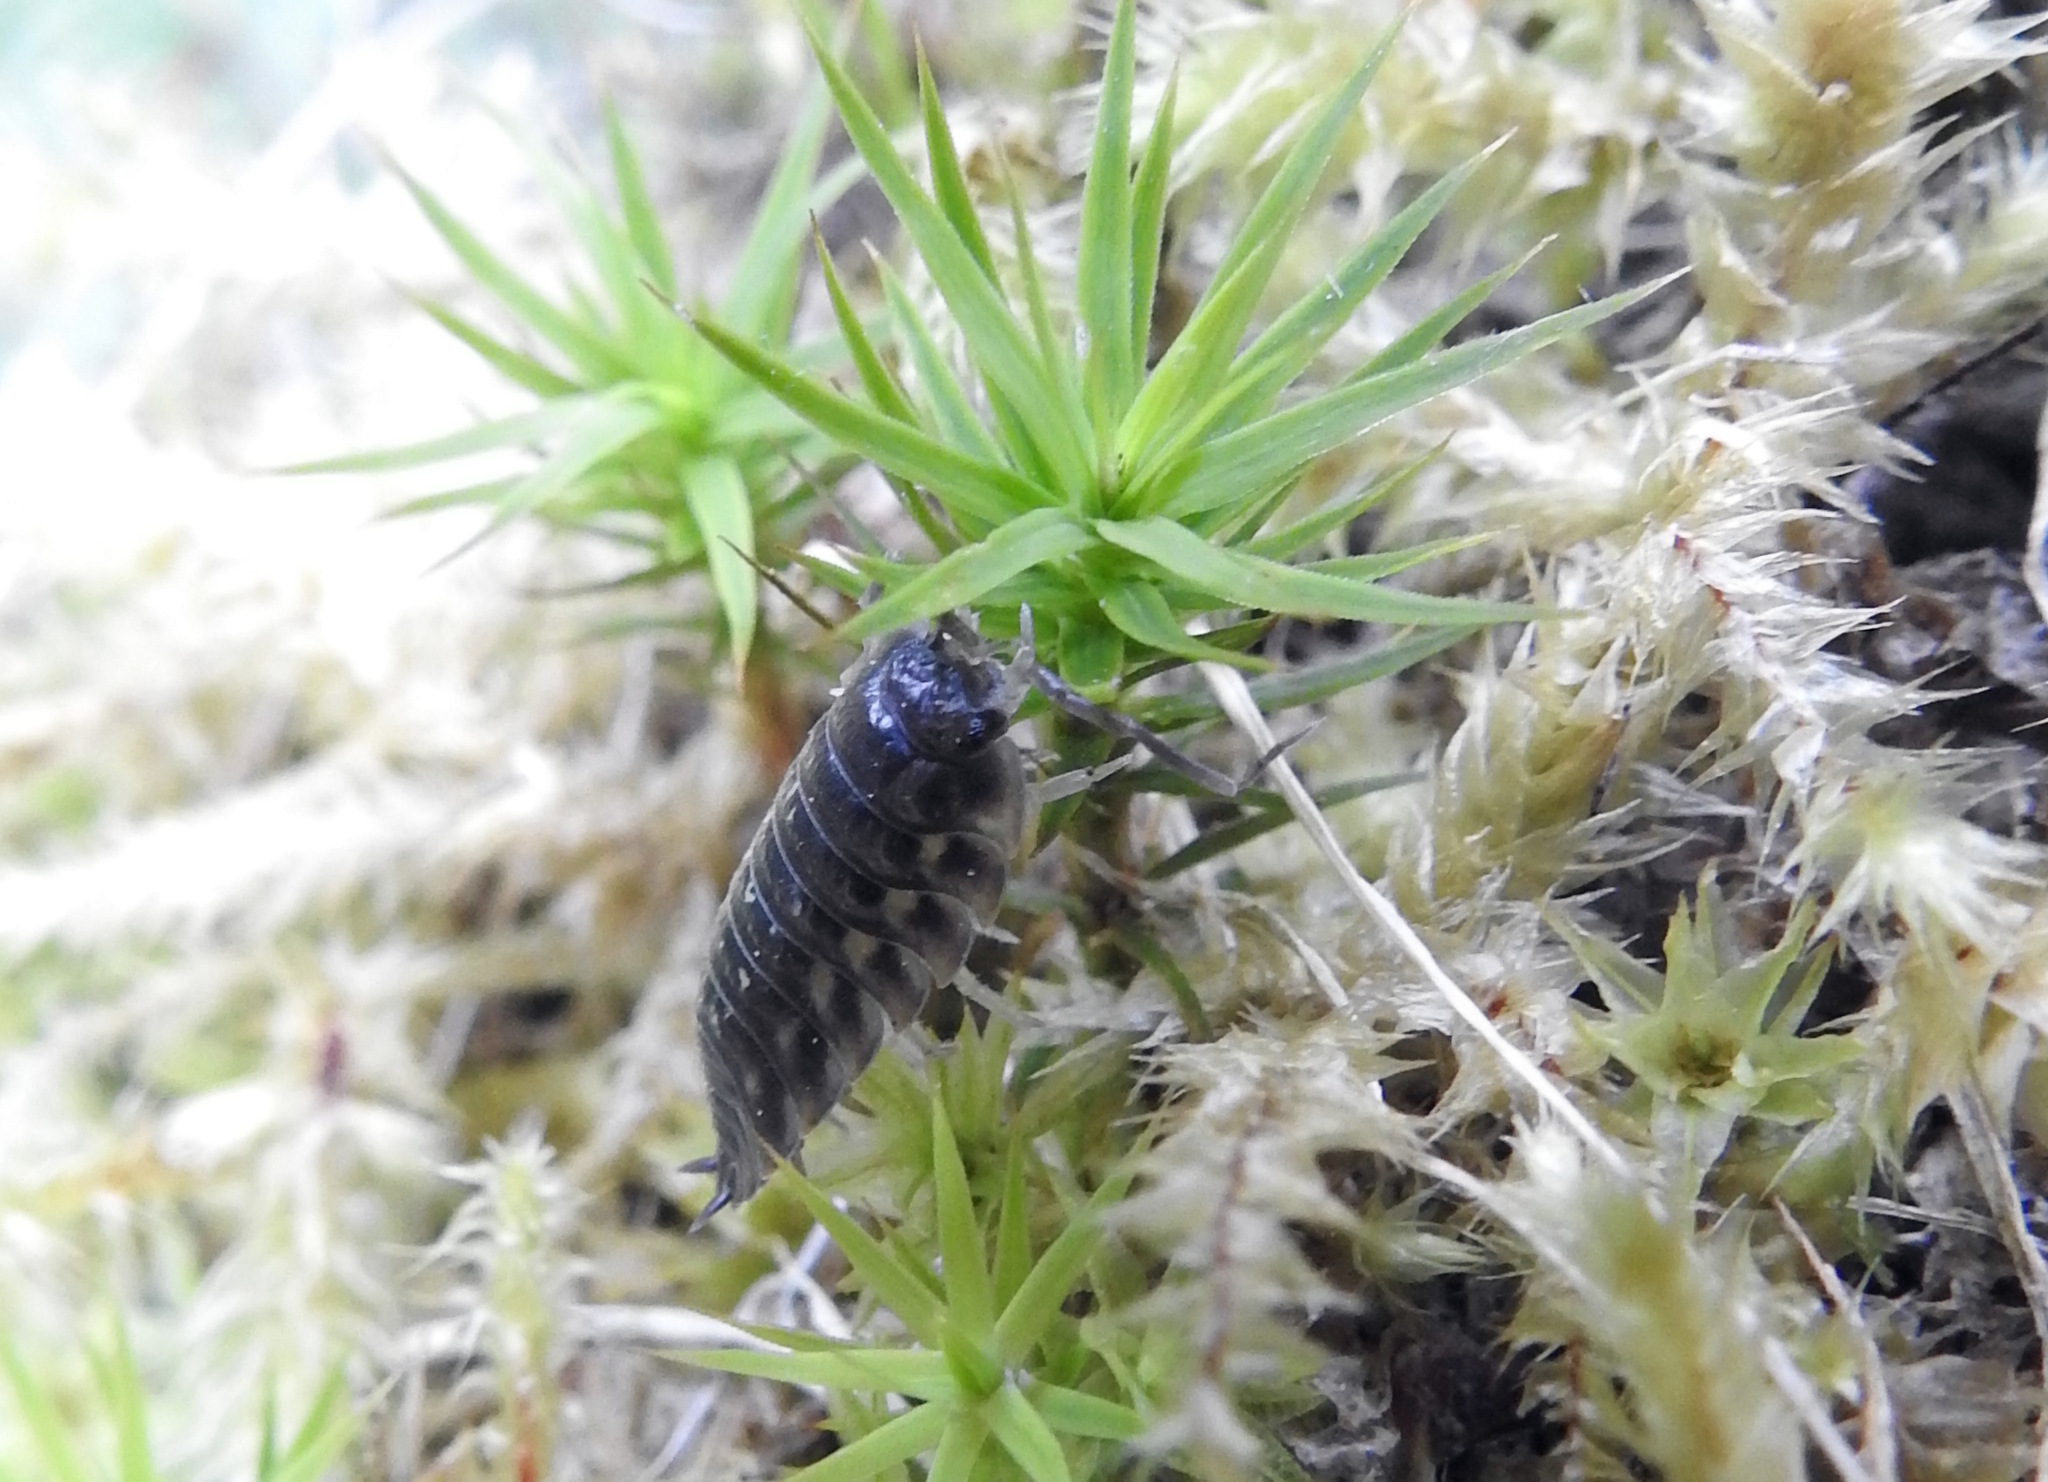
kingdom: Animalia
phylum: Arthropoda
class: Malacostraca
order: Isopoda
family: Oniscidae
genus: Oniscus
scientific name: Oniscus asellus
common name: Common shiny woodlouse
